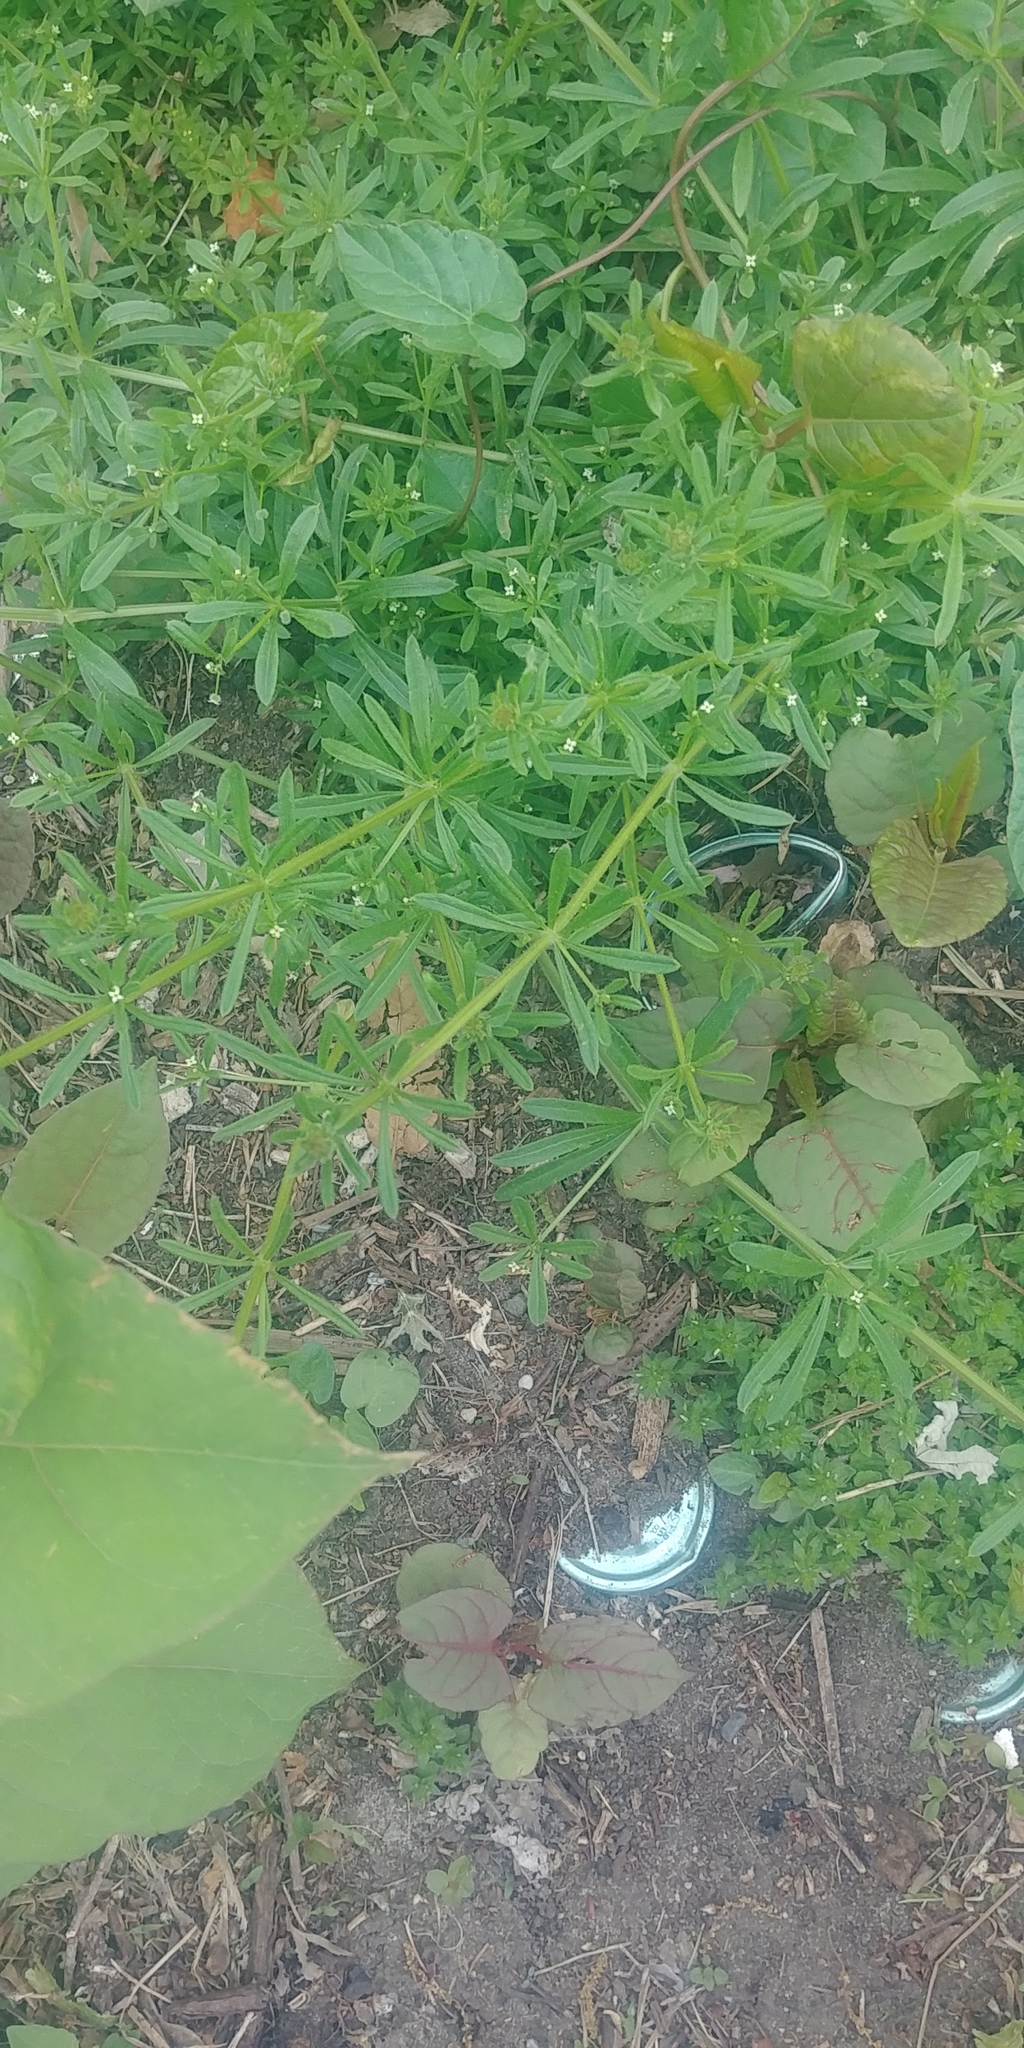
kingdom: Plantae
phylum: Tracheophyta
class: Magnoliopsida
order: Gentianales
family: Rubiaceae
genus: Galium
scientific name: Galium aparine
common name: Cleavers
